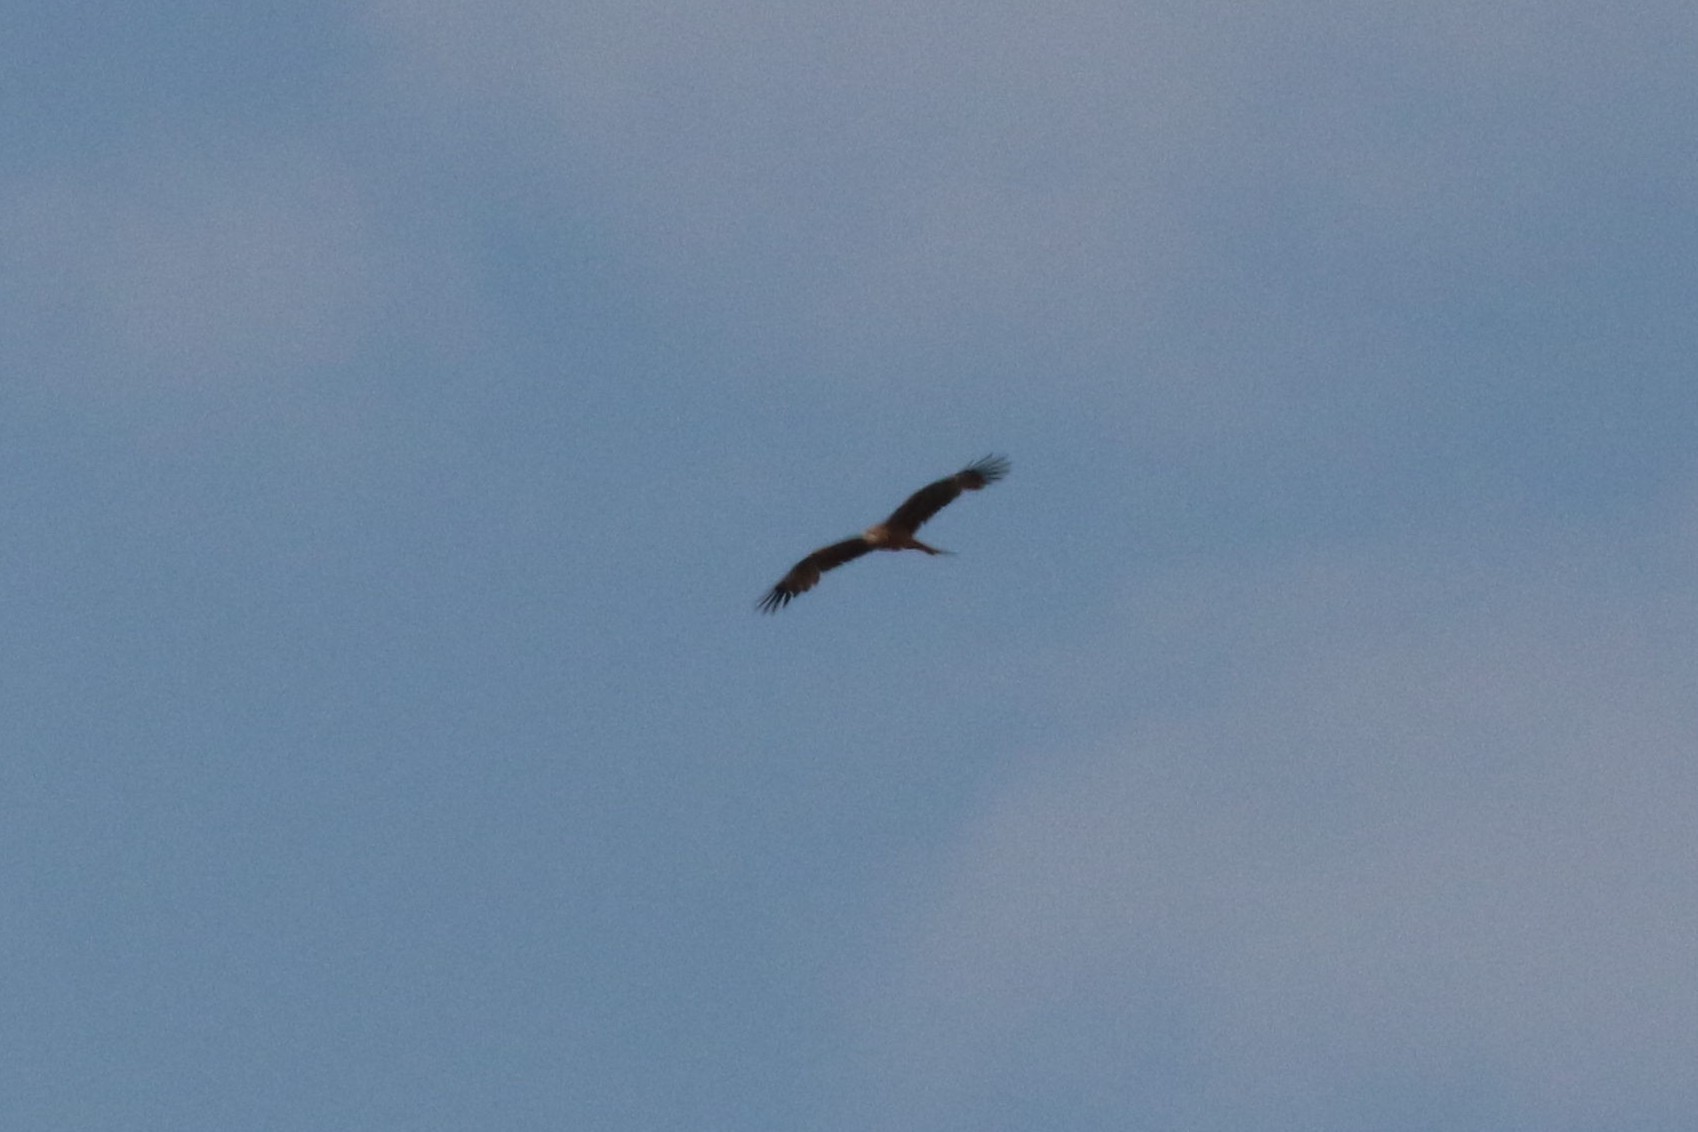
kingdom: Animalia
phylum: Chordata
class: Aves
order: Accipitriformes
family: Accipitridae
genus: Milvus
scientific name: Milvus migrans
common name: Black kite
